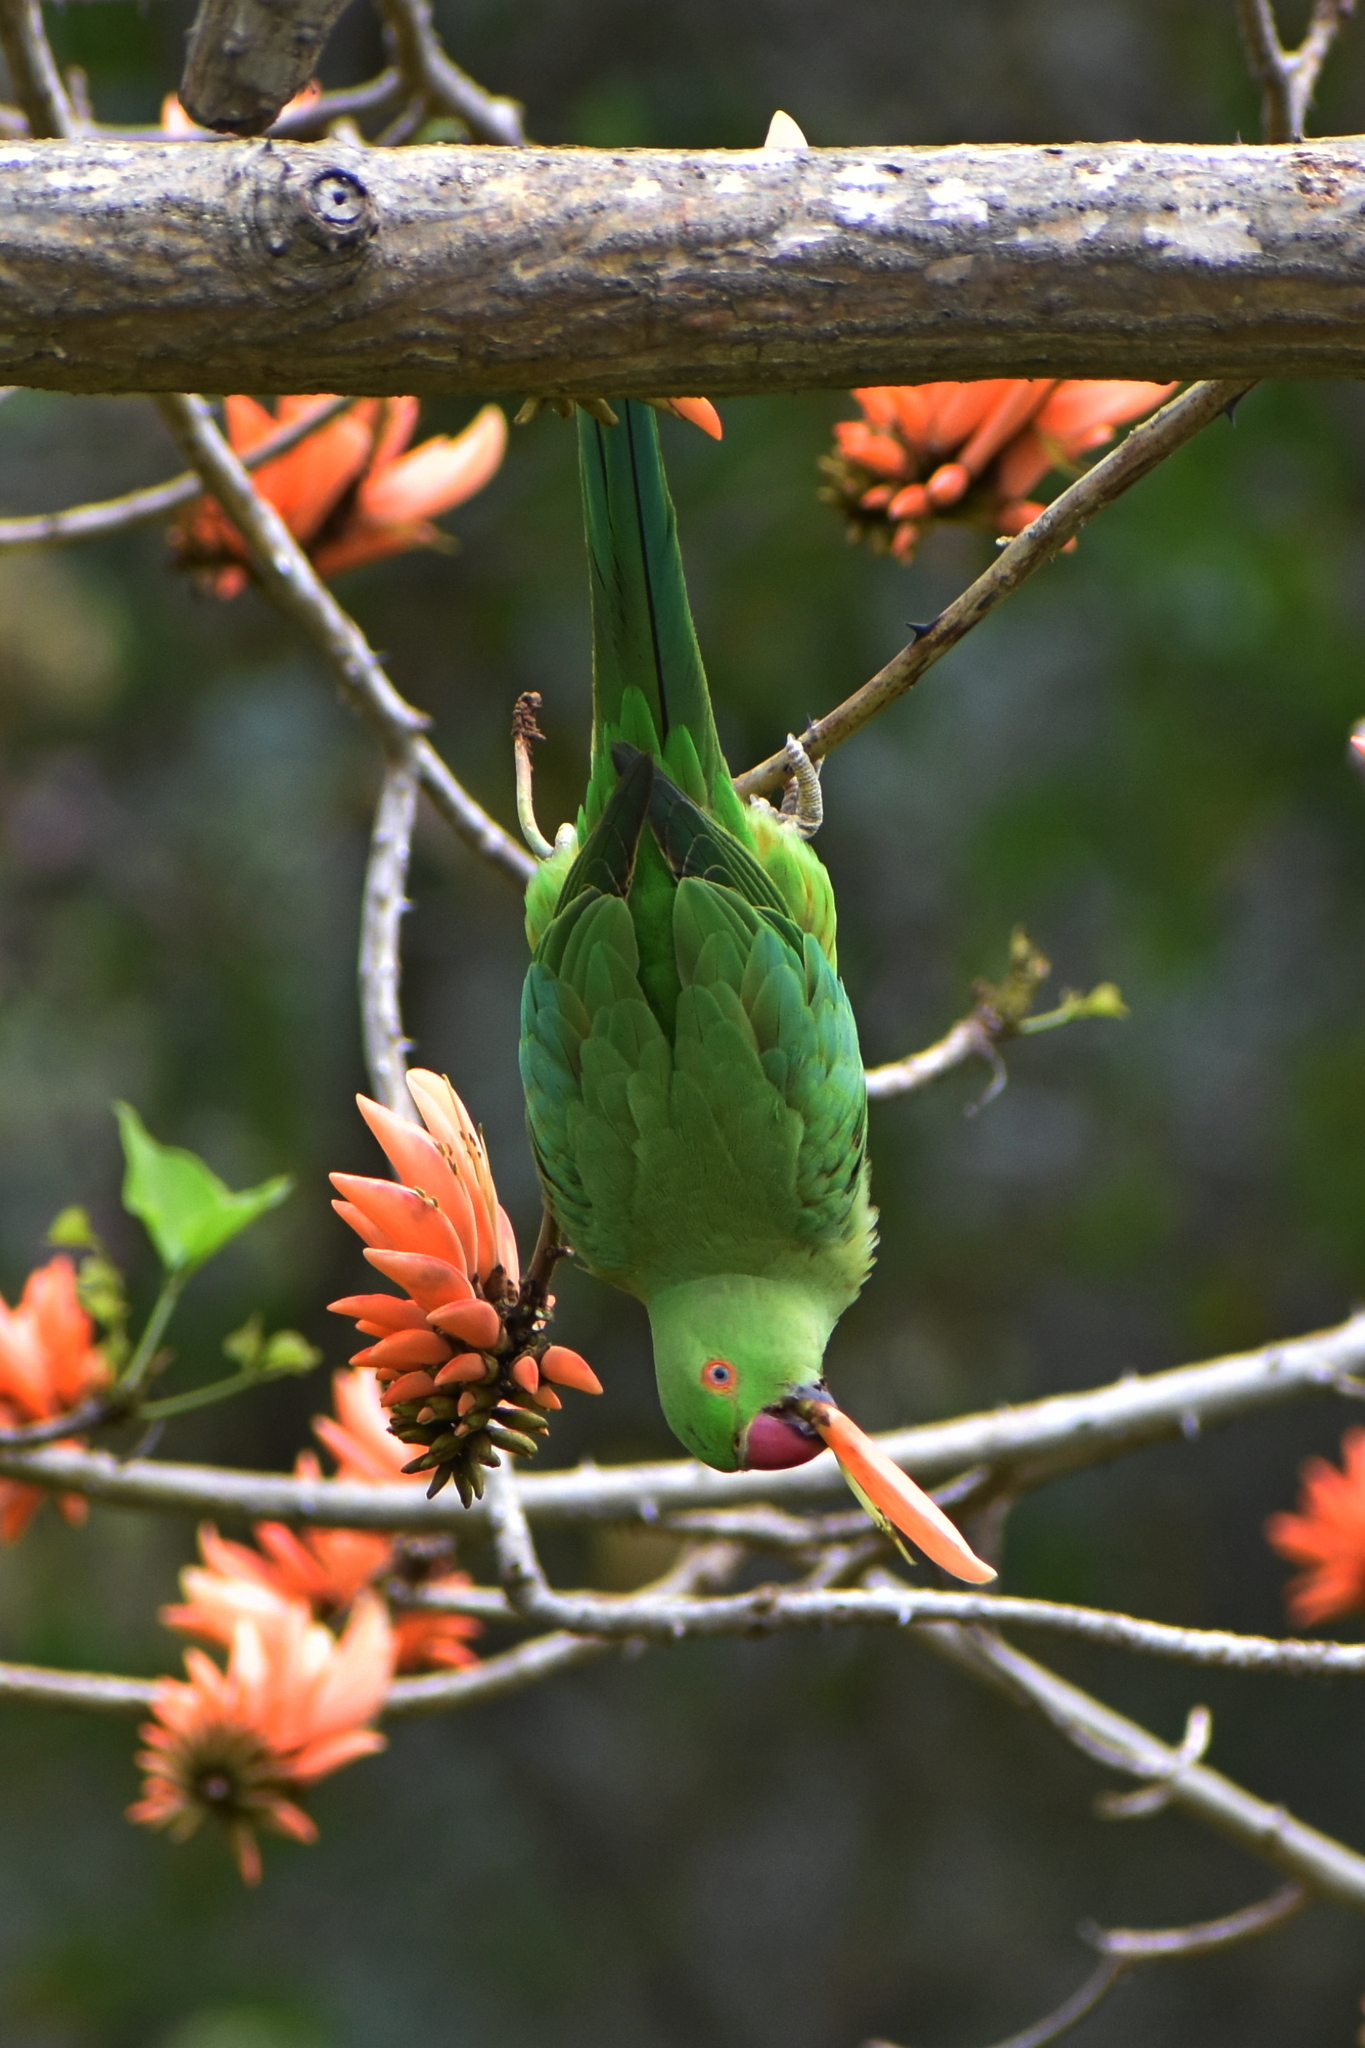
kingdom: Animalia
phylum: Chordata
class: Aves
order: Psittaciformes
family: Psittacidae
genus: Psittacula
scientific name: Psittacula krameri
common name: Rose-ringed parakeet
